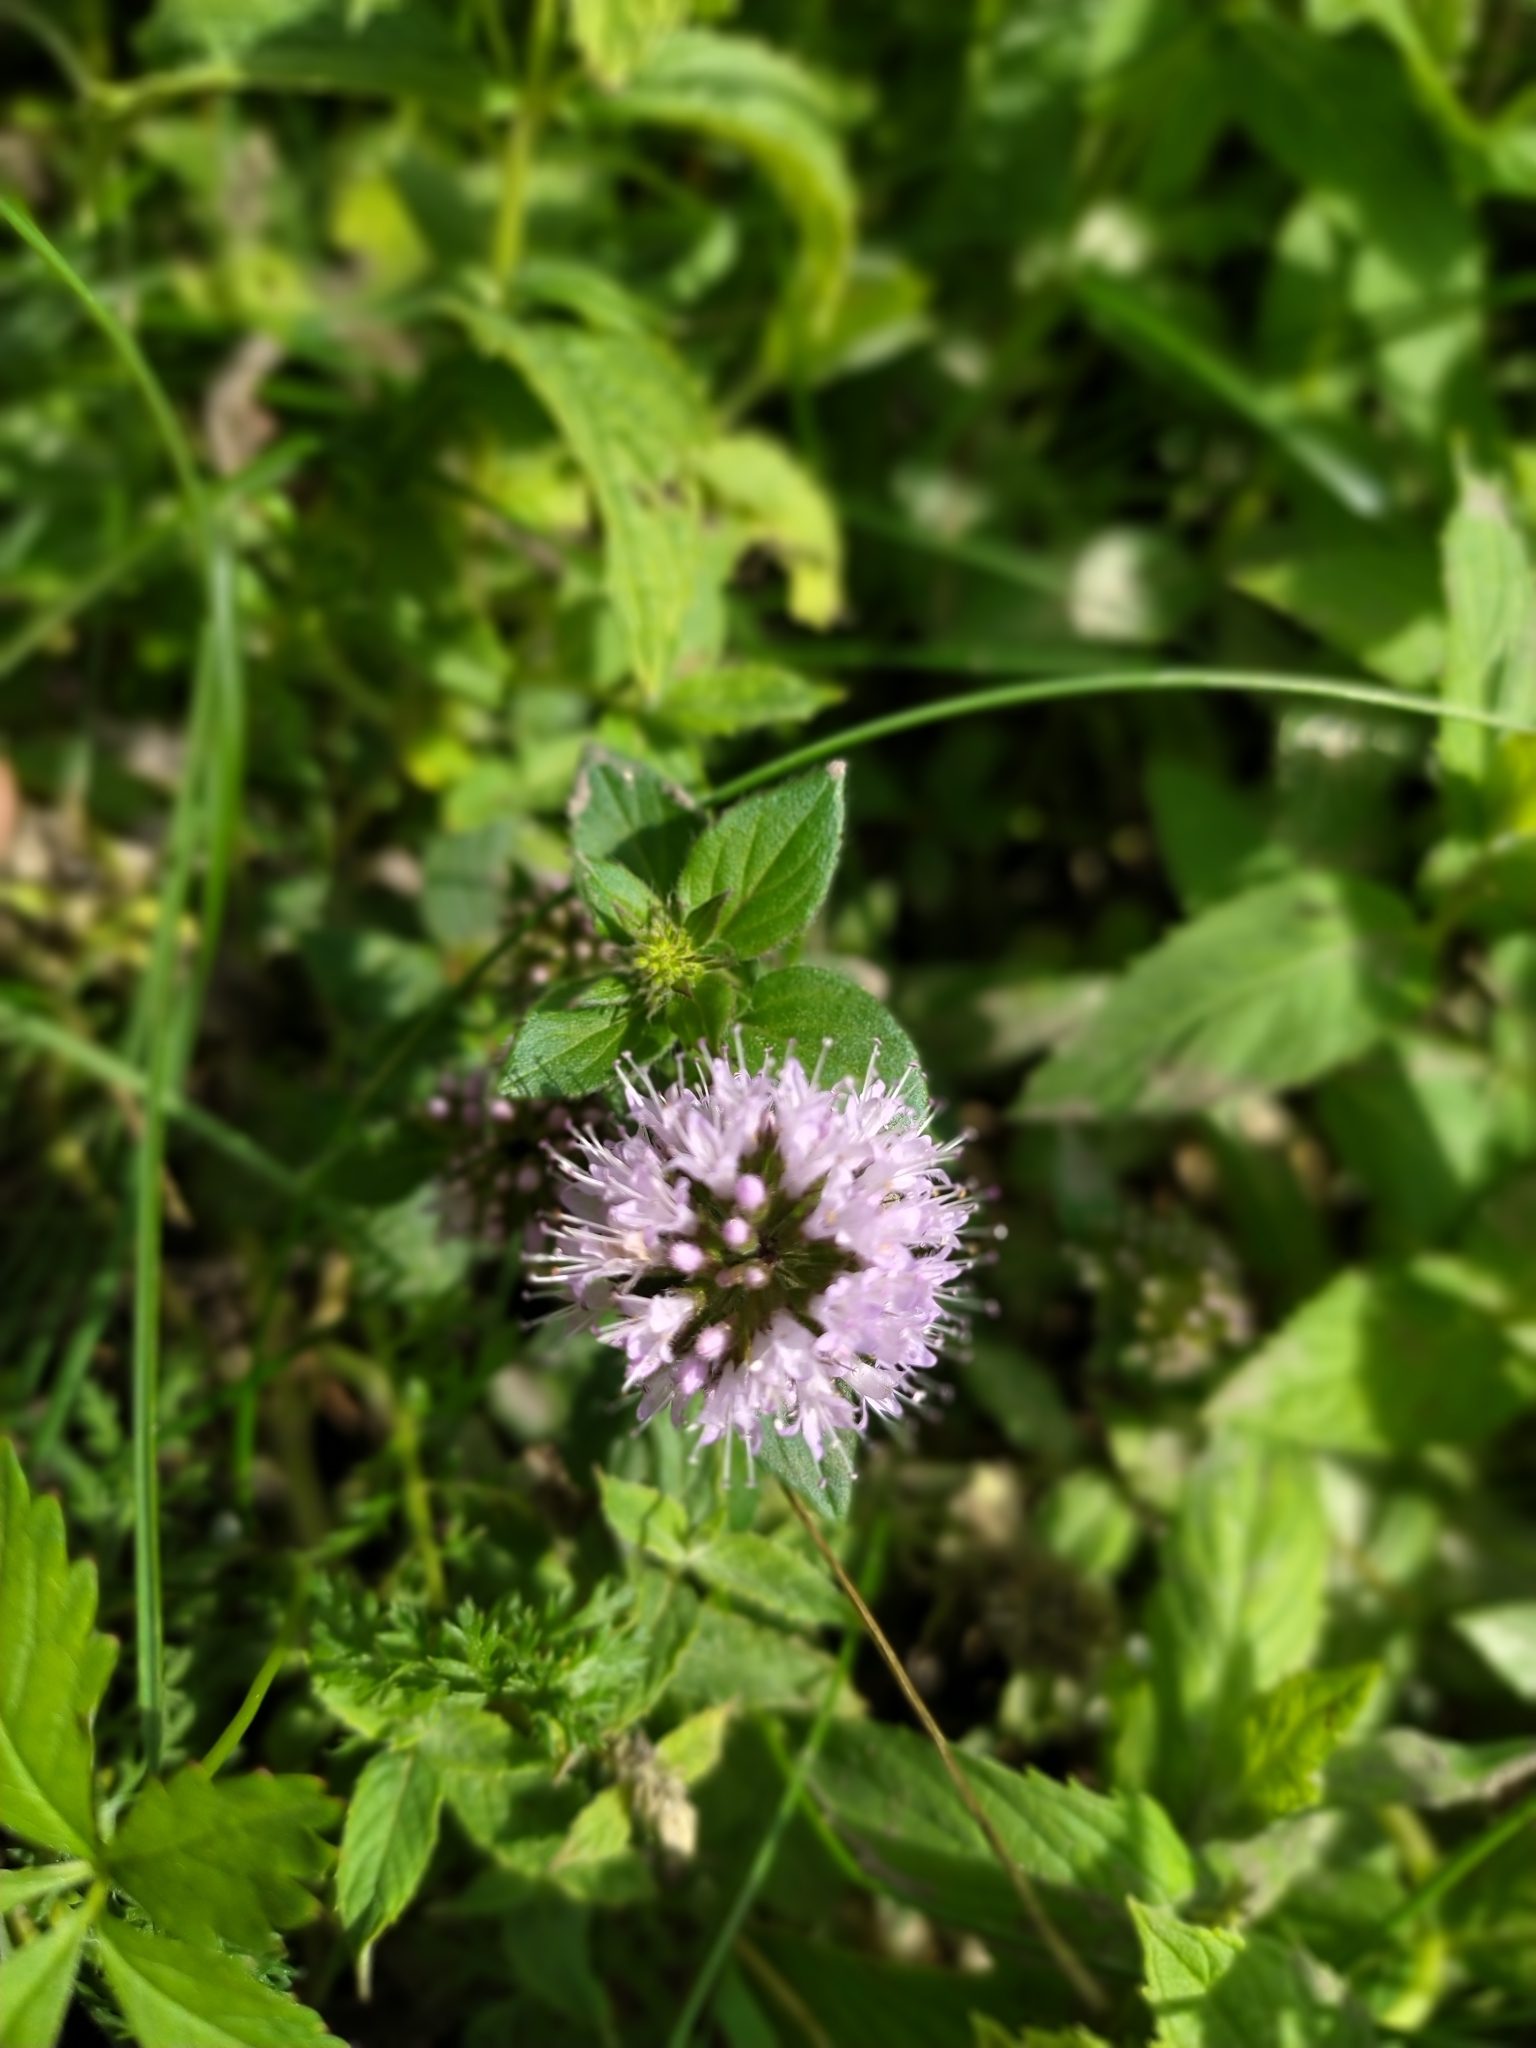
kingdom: Plantae
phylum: Tracheophyta
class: Magnoliopsida
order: Lamiales
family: Lamiaceae
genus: Mentha
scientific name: Mentha aquatica
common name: Water mint
